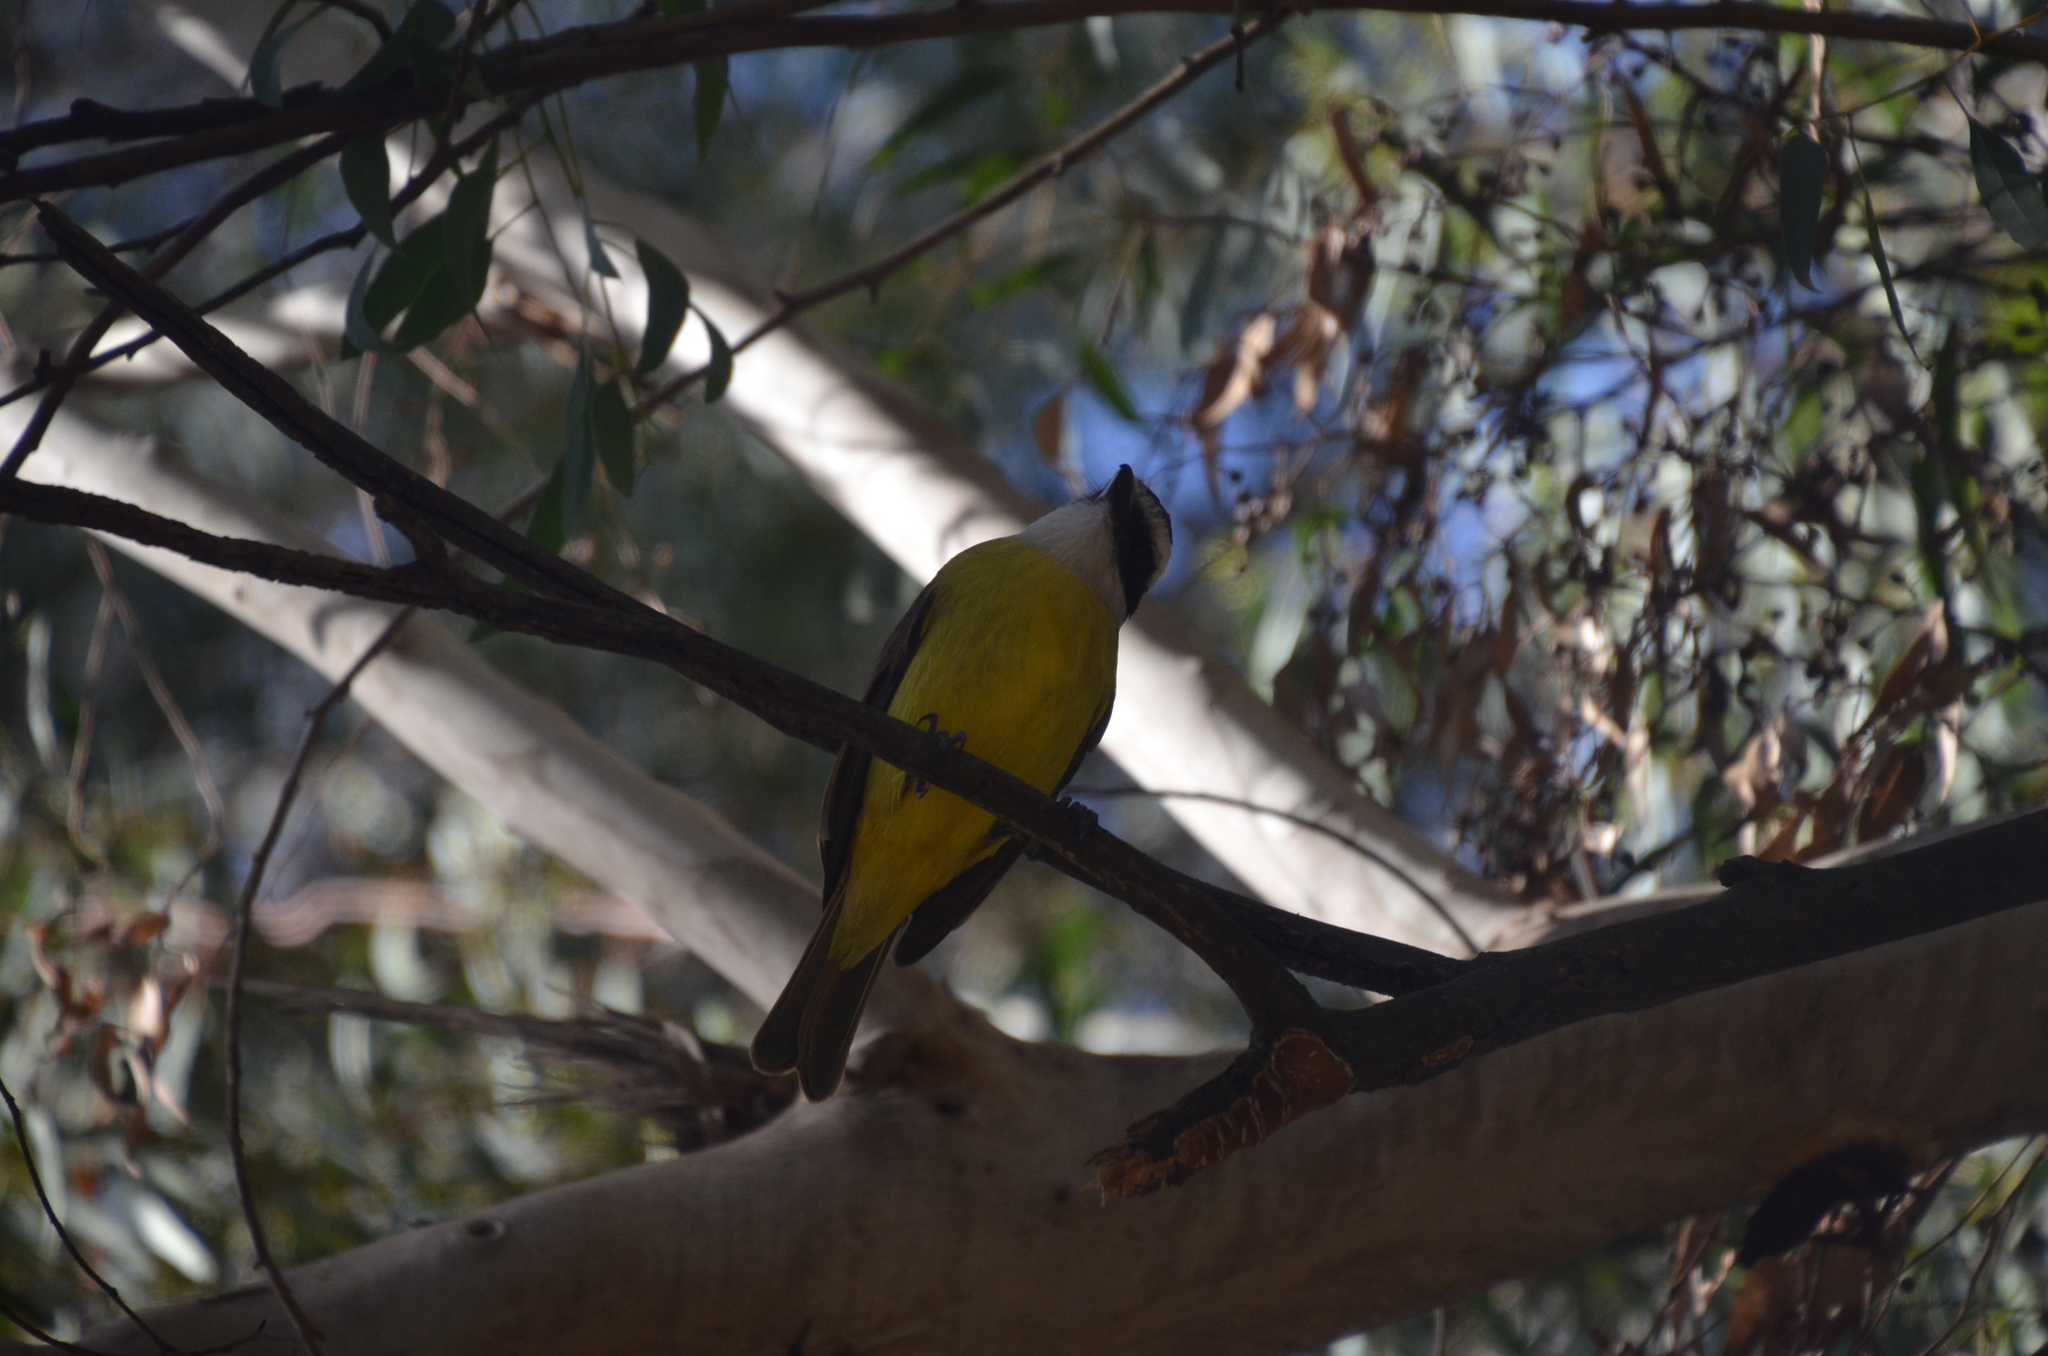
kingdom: Animalia
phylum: Chordata
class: Aves
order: Passeriformes
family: Tyrannidae
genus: Pitangus
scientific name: Pitangus sulphuratus
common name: Great kiskadee
